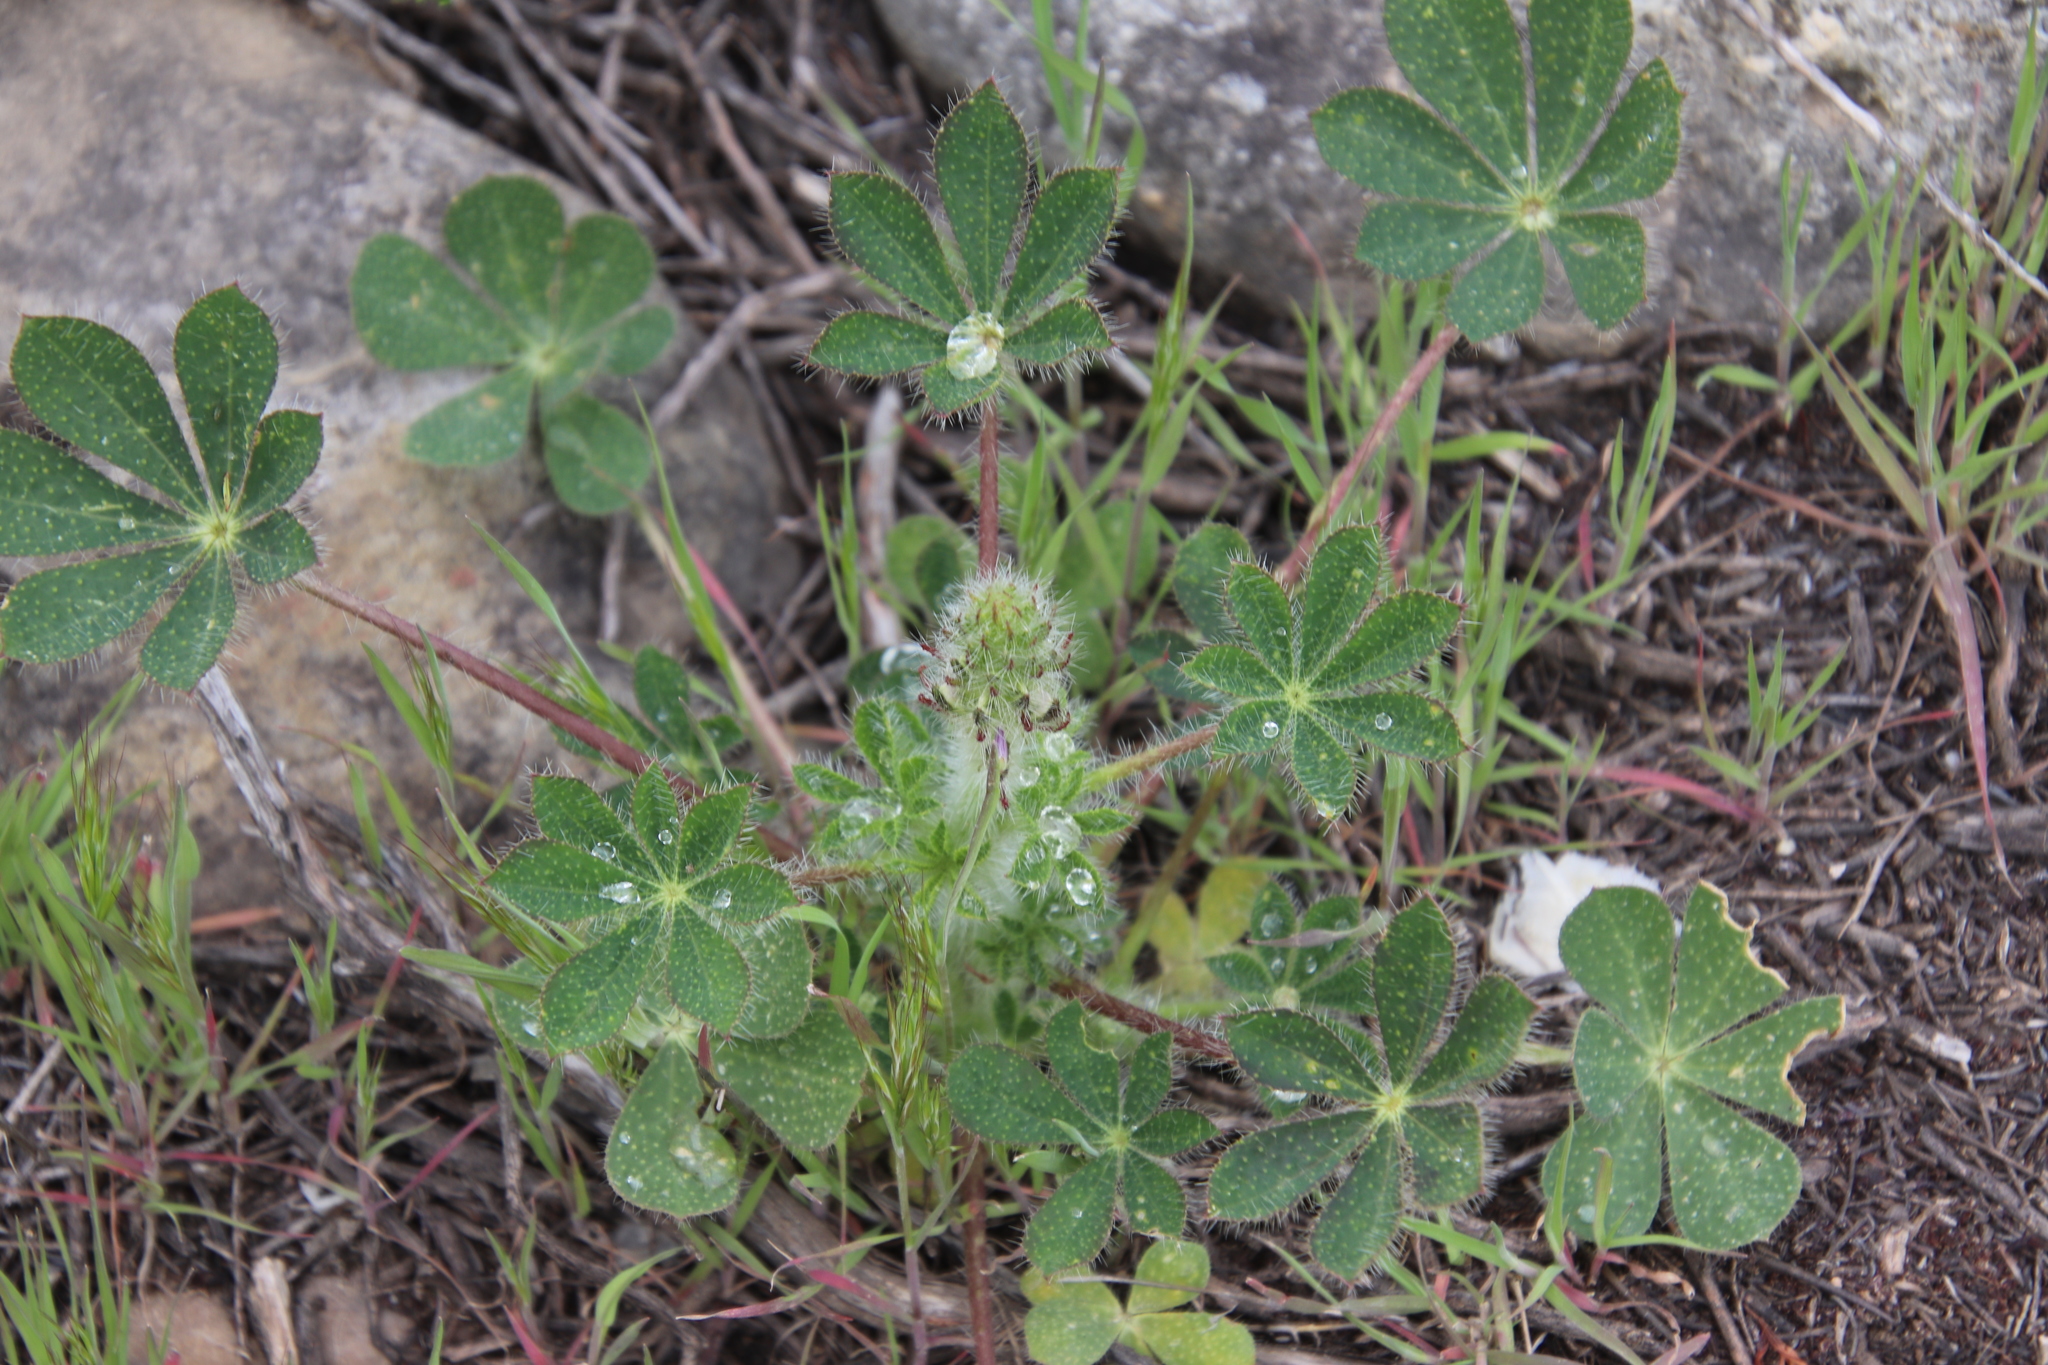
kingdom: Plantae
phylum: Tracheophyta
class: Magnoliopsida
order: Fabales
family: Fabaceae
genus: Lupinus
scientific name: Lupinus hirsutissimus
